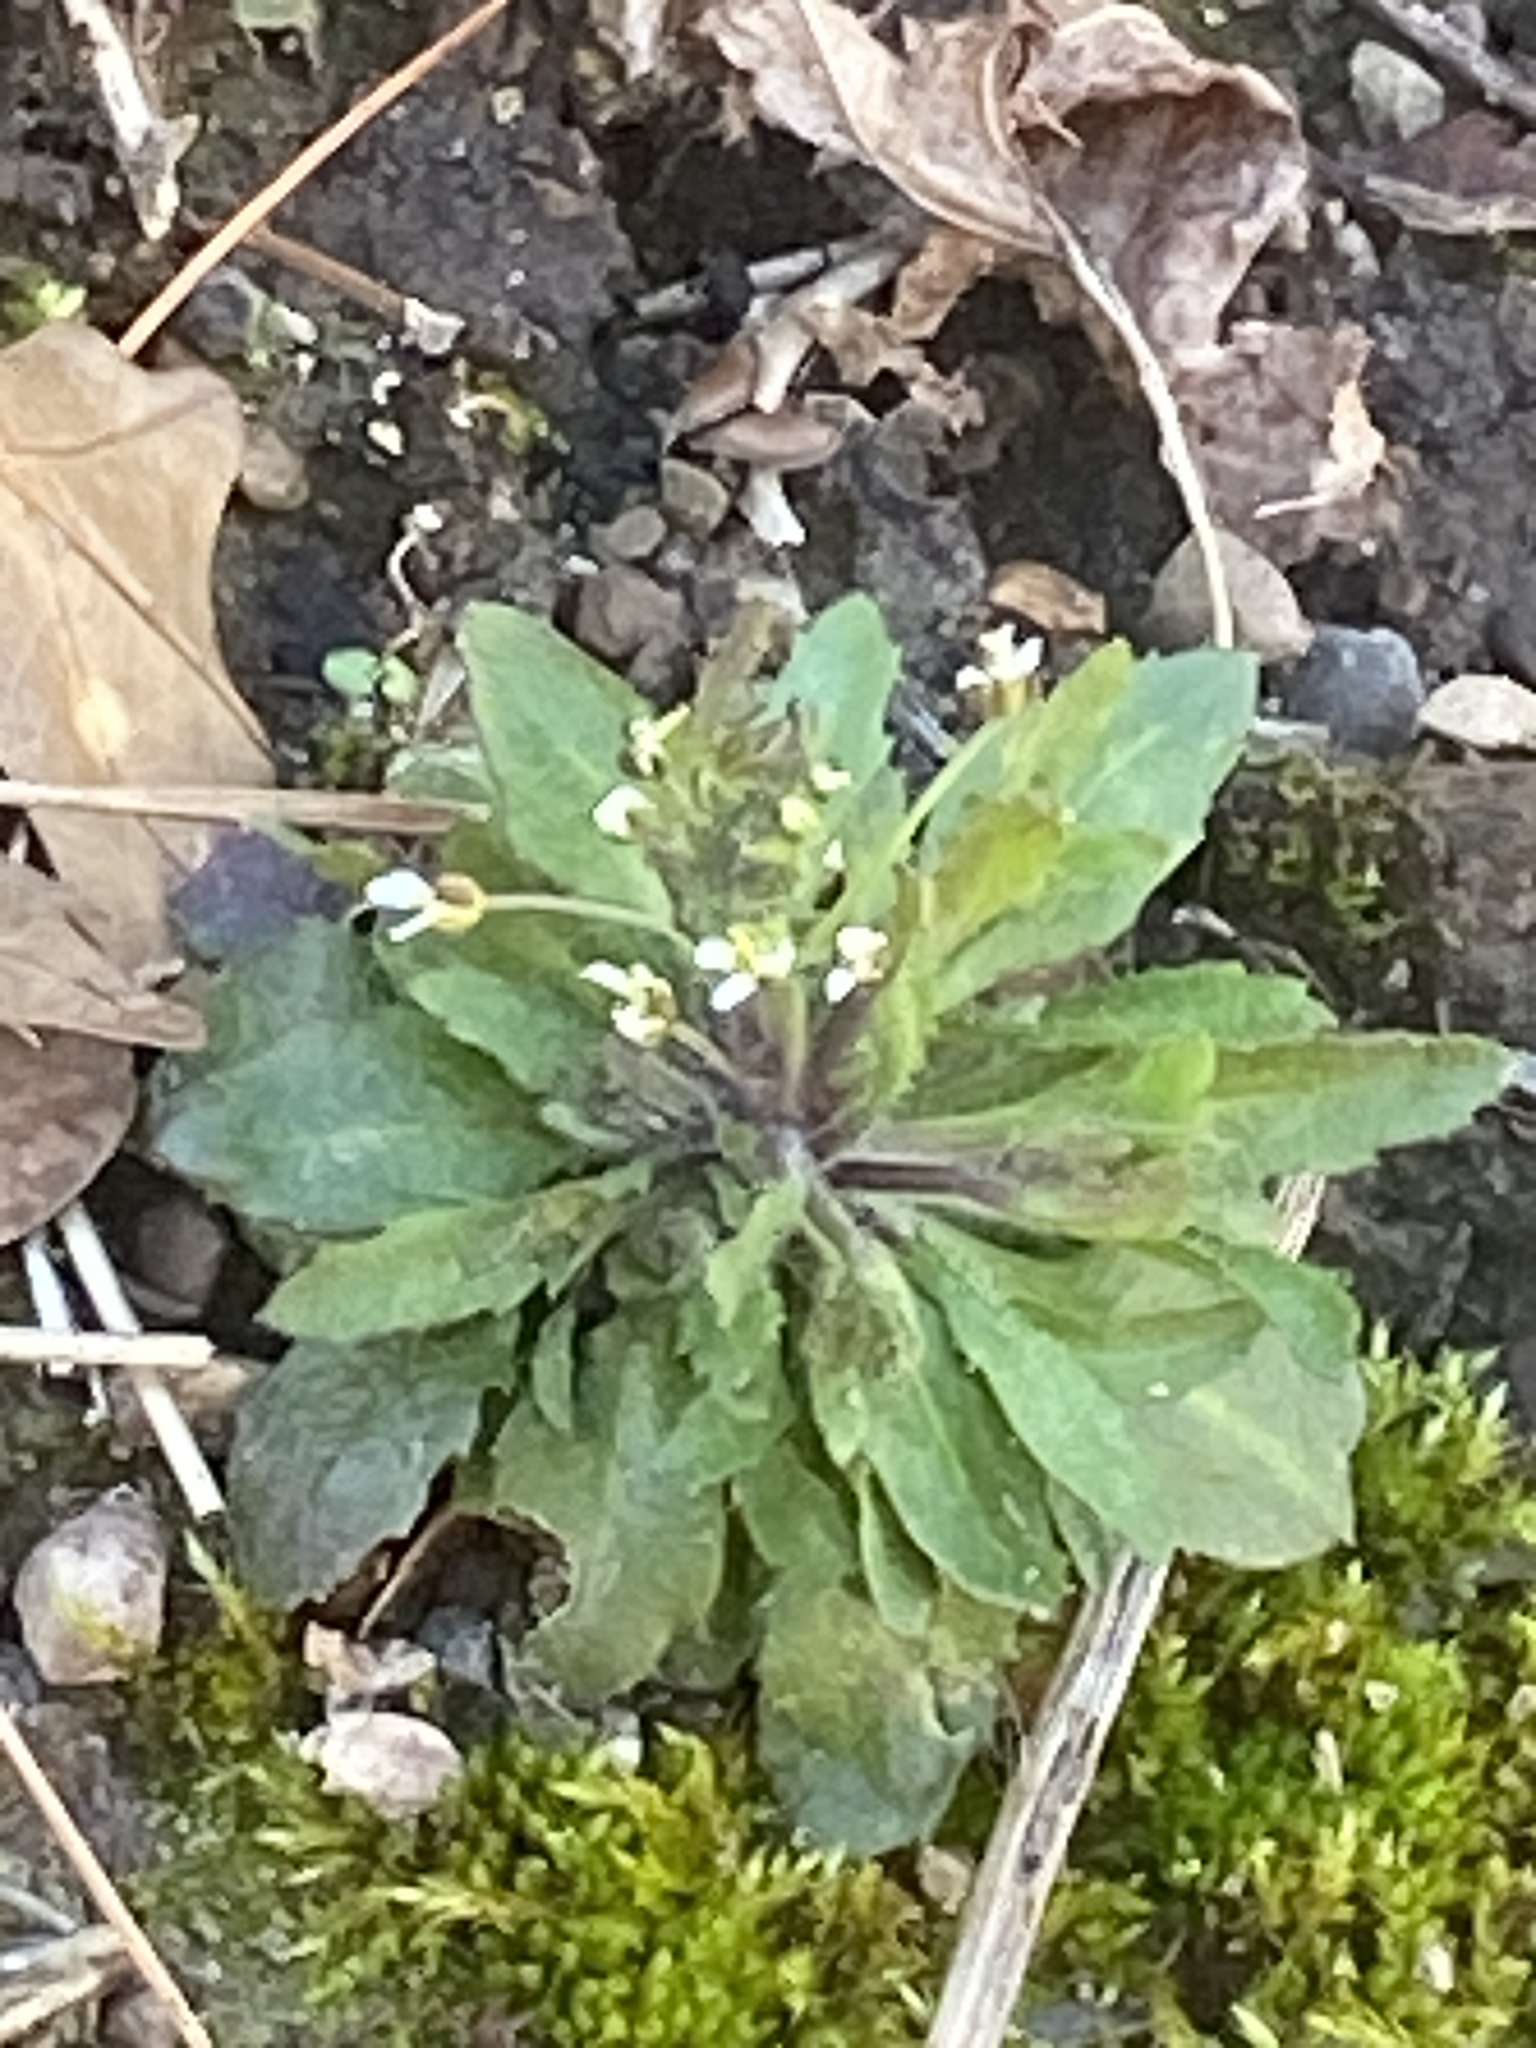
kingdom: Plantae
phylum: Tracheophyta
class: Magnoliopsida
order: Brassicales
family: Brassicaceae
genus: Arabidopsis
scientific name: Arabidopsis thaliana
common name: Thale cress
